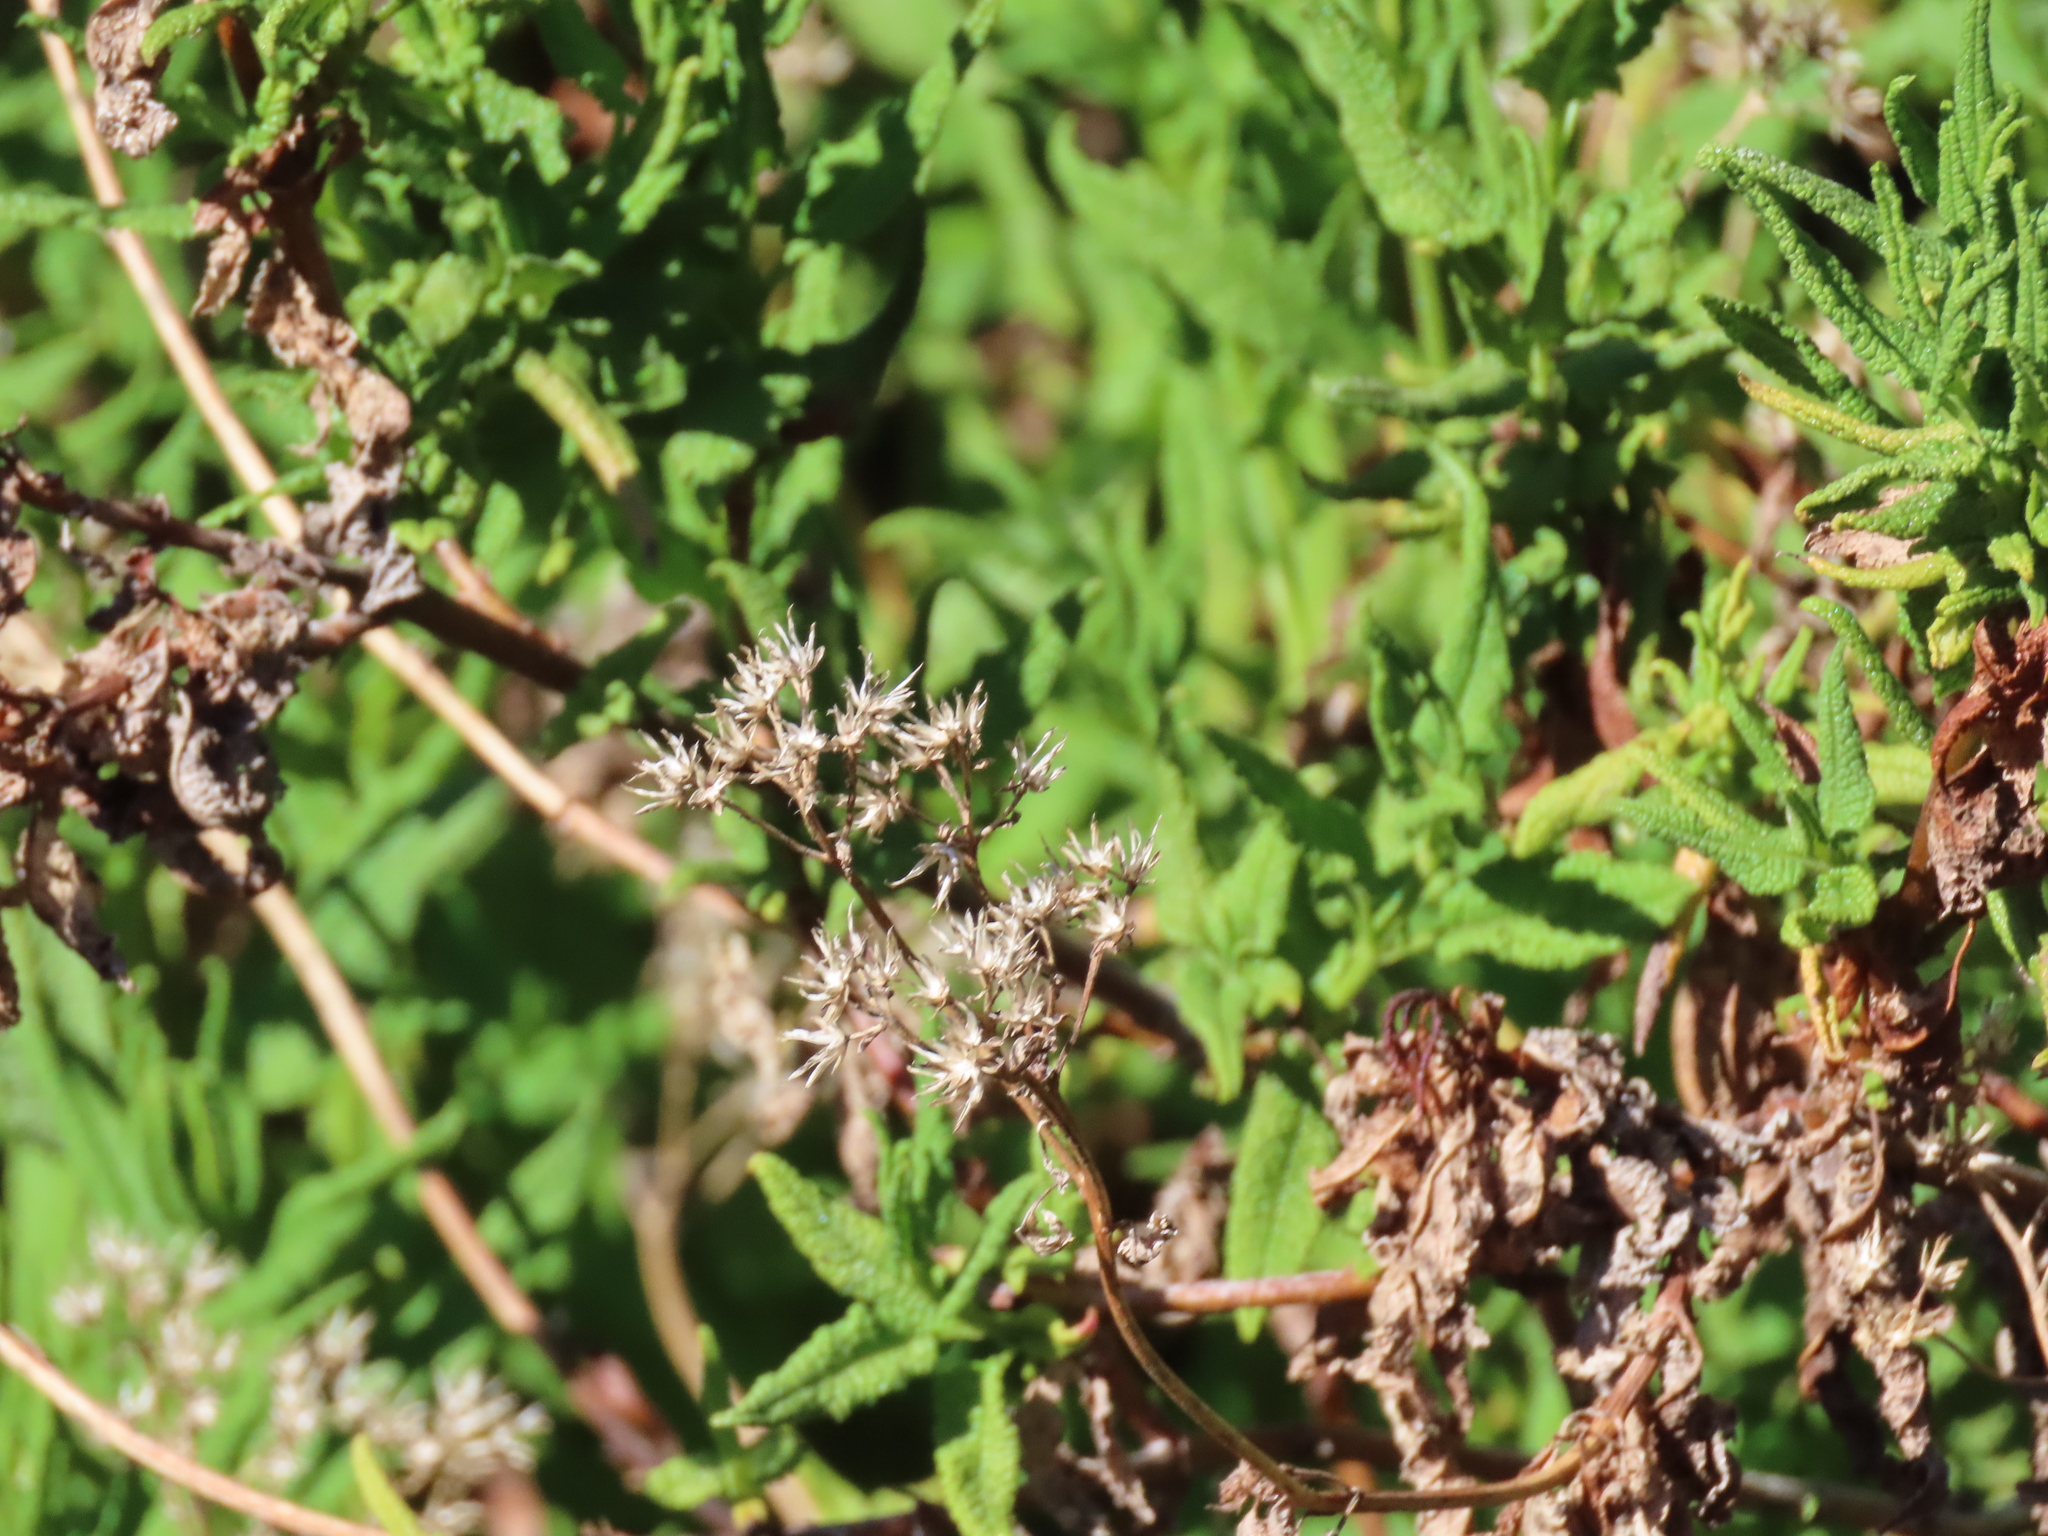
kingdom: Plantae
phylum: Tracheophyta
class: Magnoliopsida
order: Asterales
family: Asteraceae
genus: Aristeguietia
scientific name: Aristeguietia salvia
